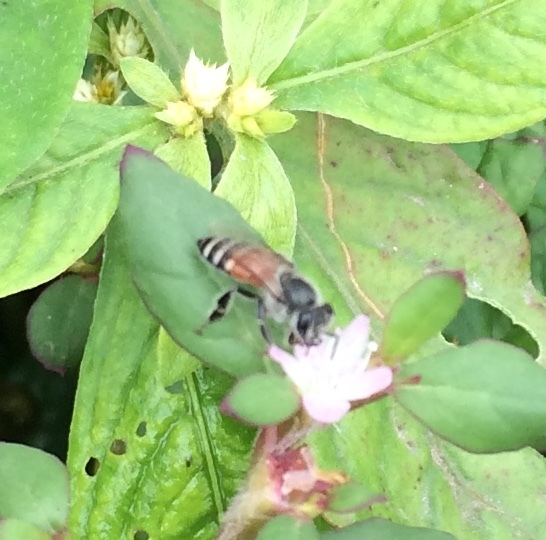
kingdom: Animalia
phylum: Arthropoda
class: Insecta
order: Hymenoptera
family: Apidae
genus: Apis
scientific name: Apis florea
